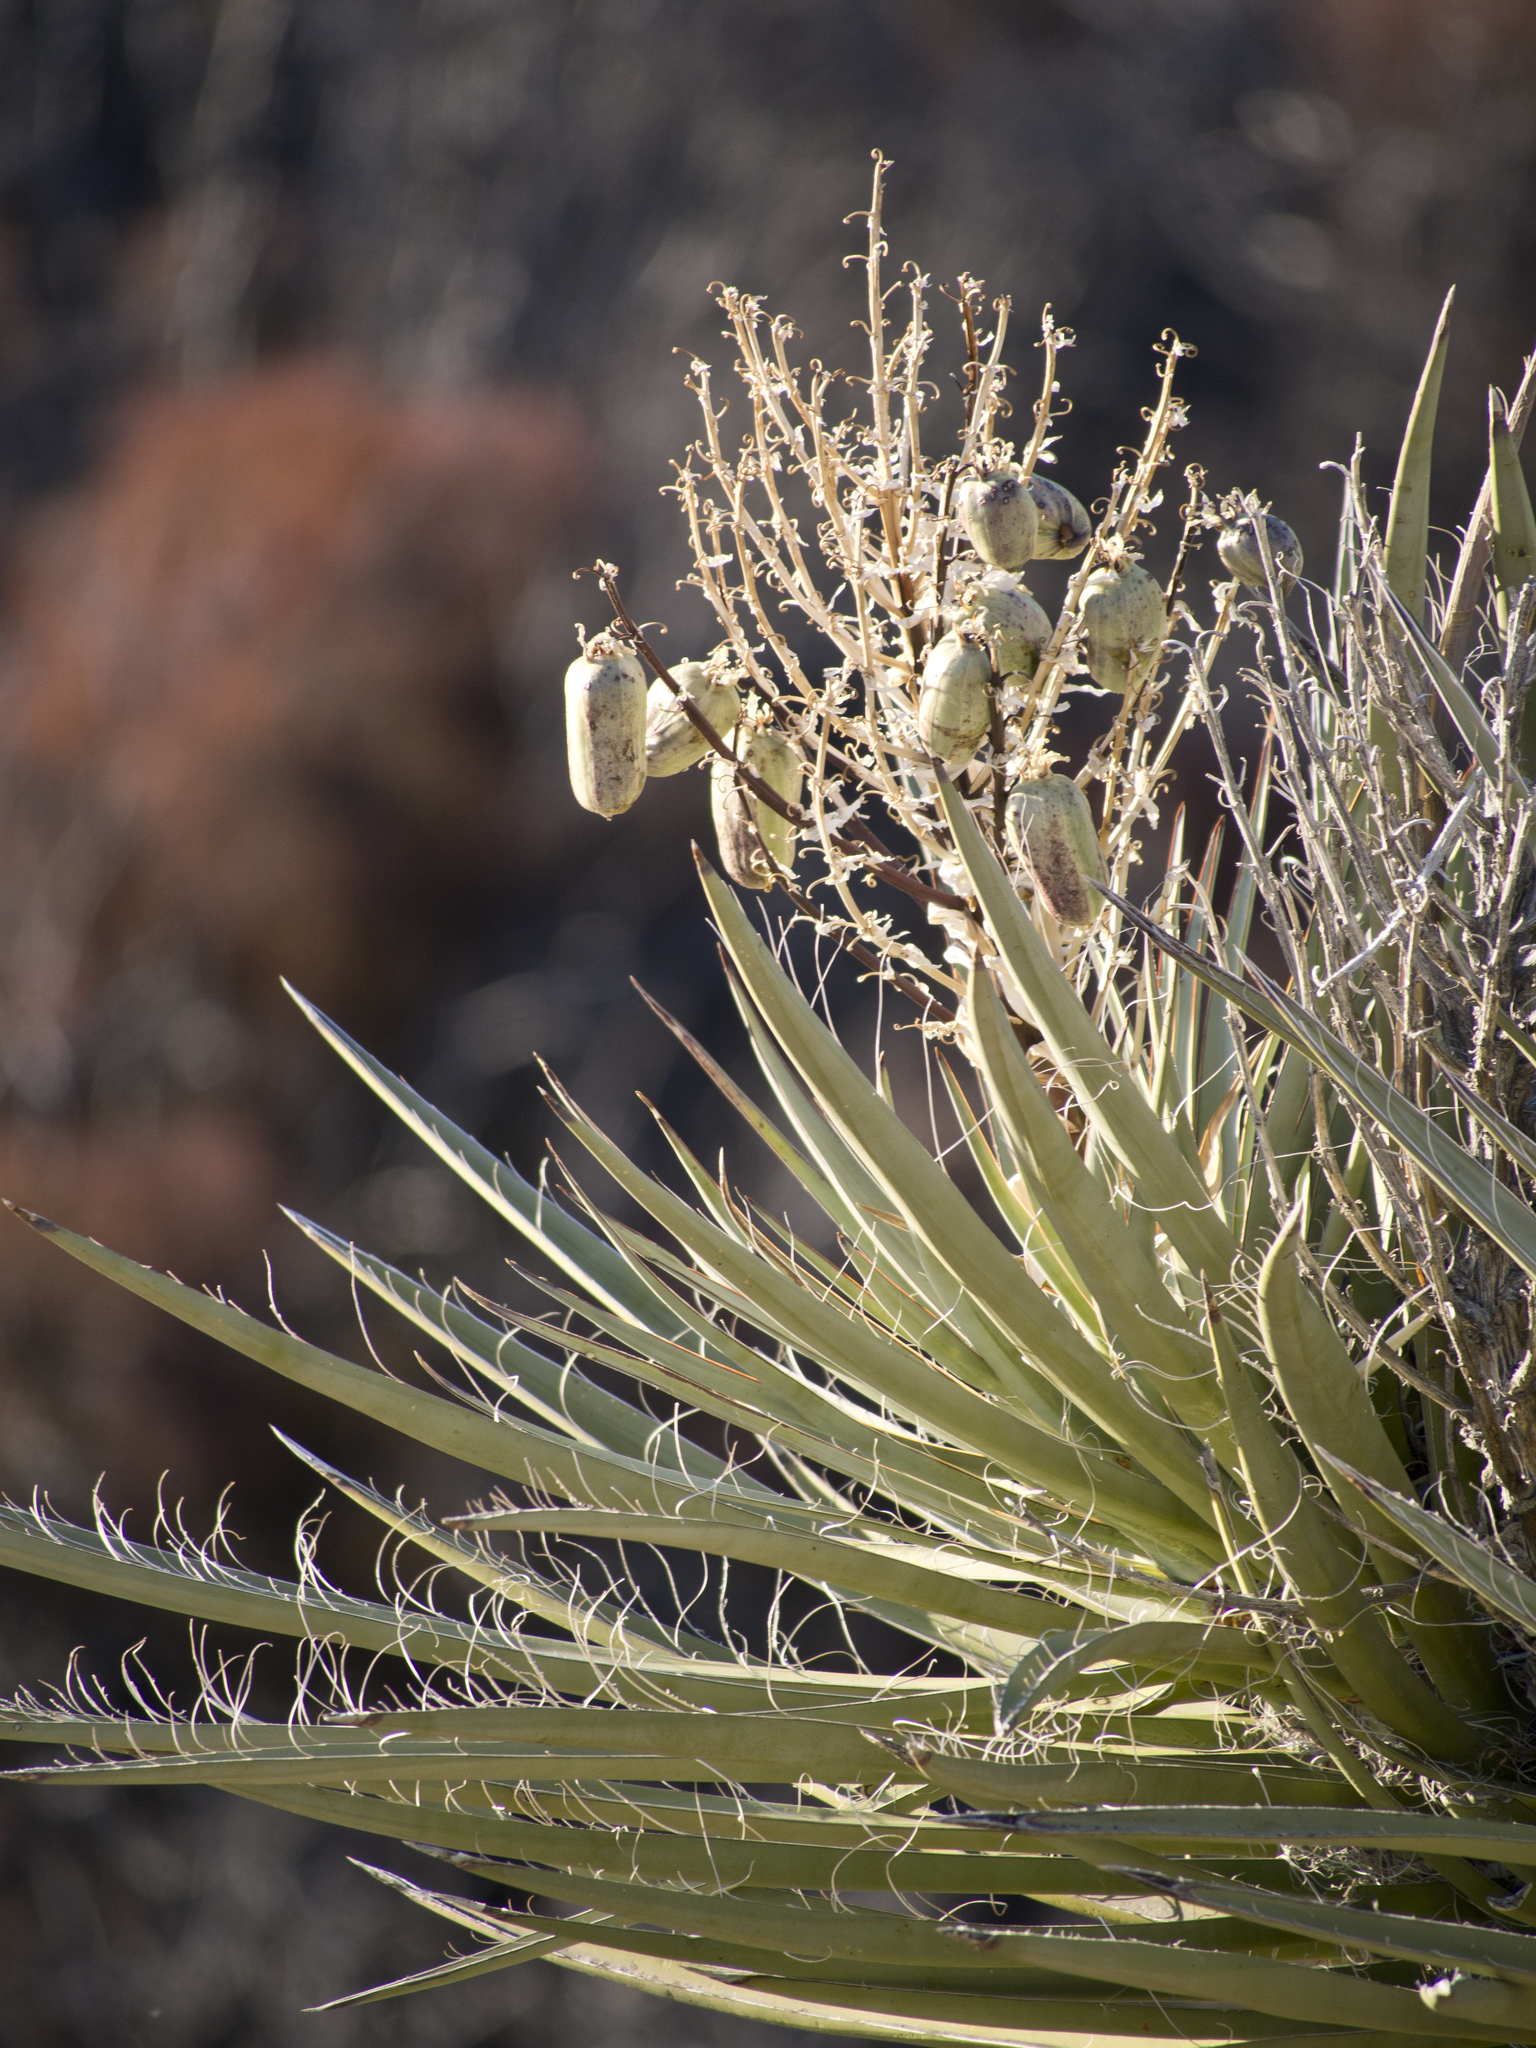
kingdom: Plantae
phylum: Tracheophyta
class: Liliopsida
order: Asparagales
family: Asparagaceae
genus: Yucca
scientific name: Yucca schidigera
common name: Mojave yucca
